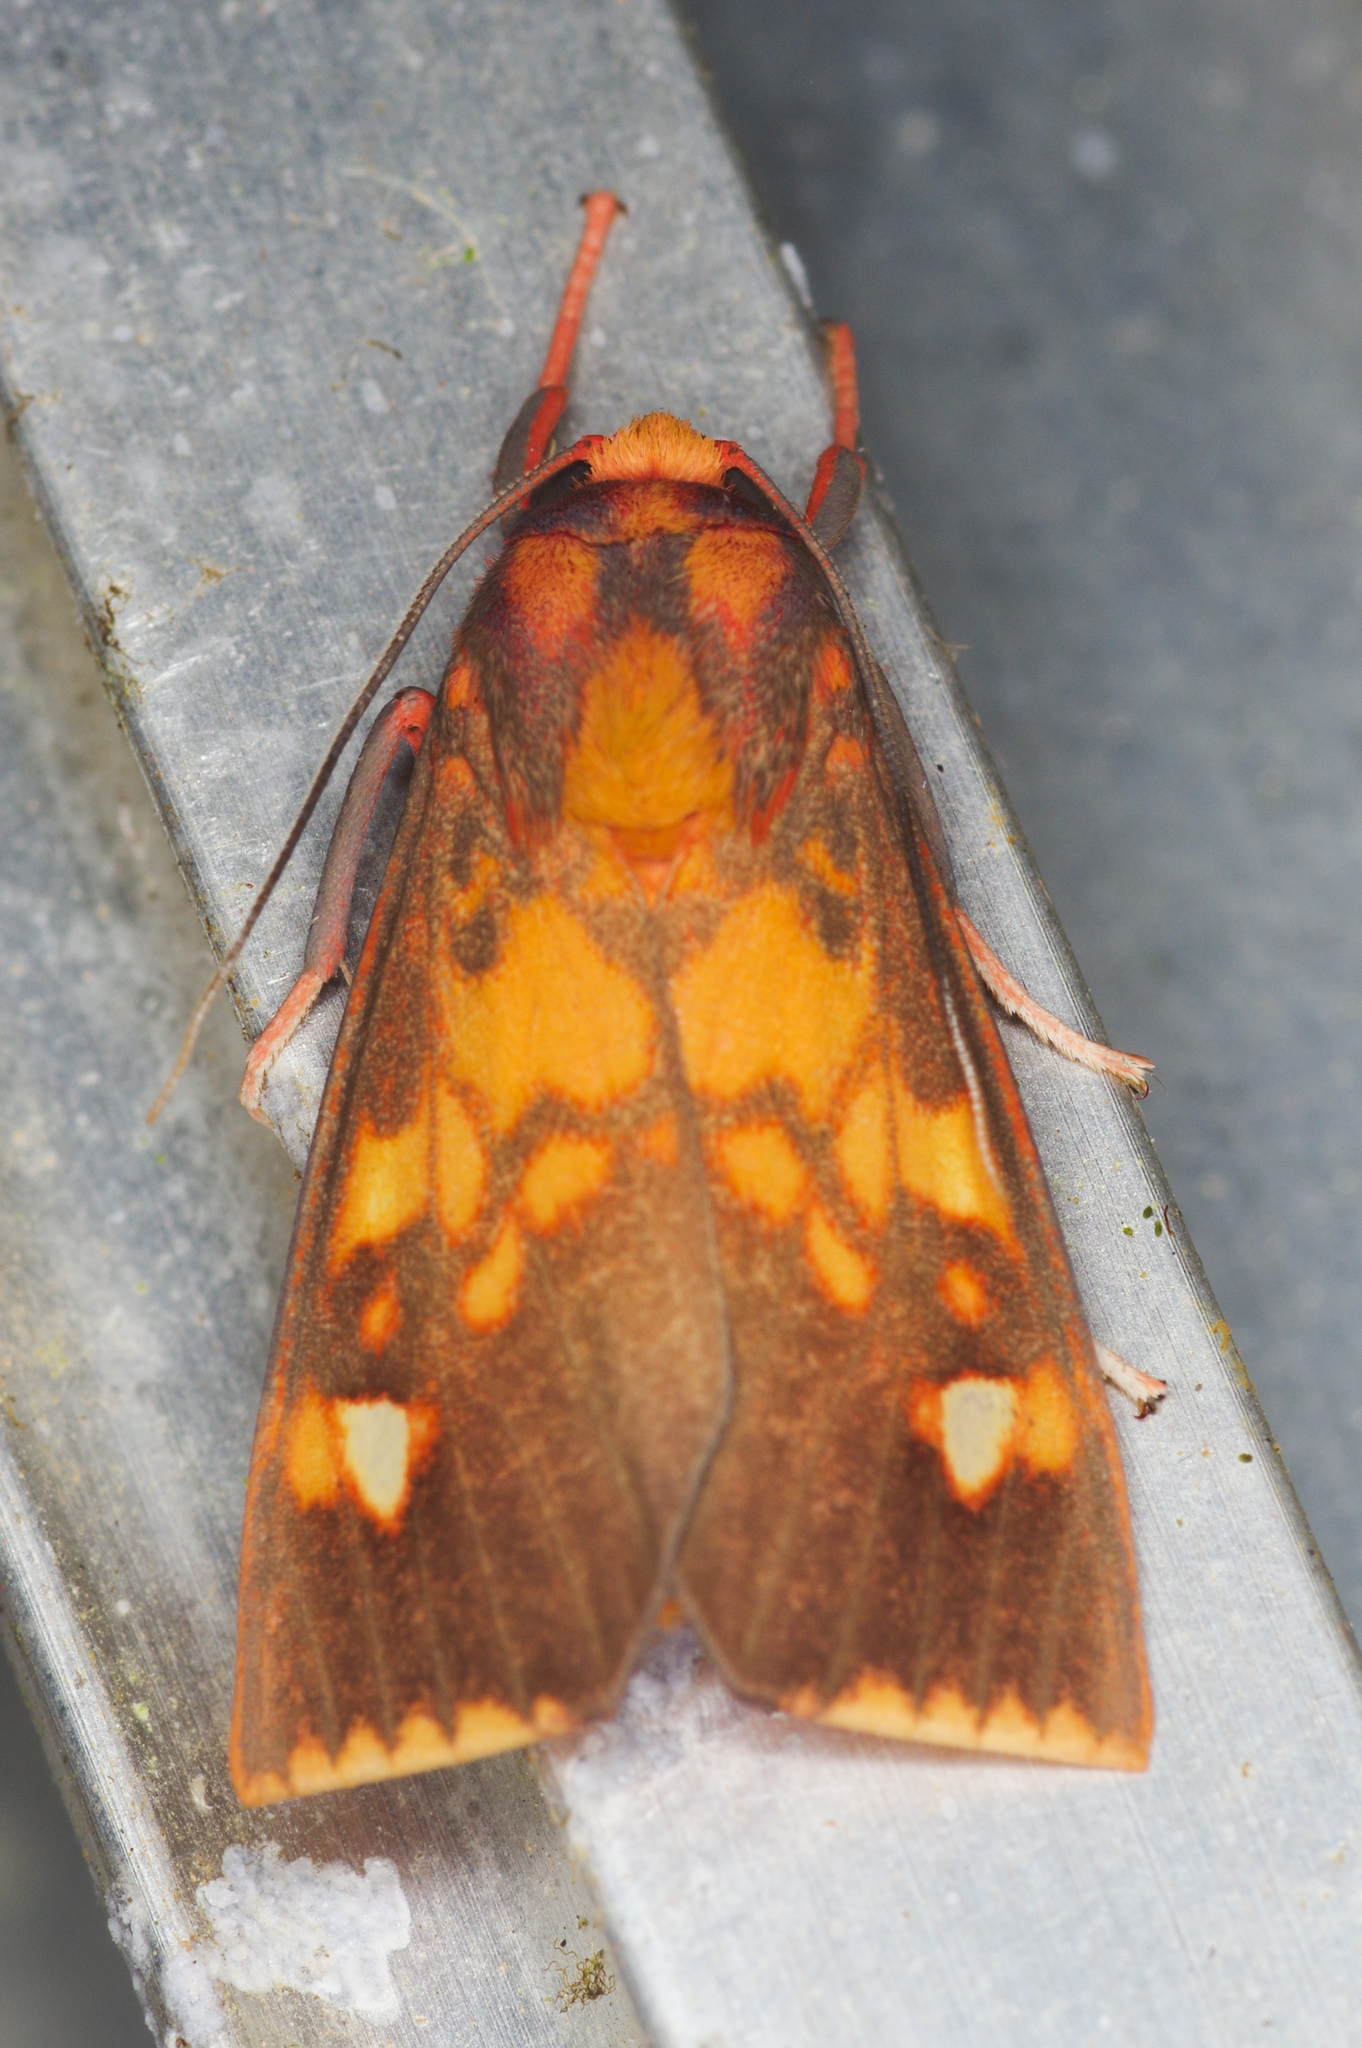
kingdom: Animalia
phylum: Arthropoda
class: Insecta
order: Lepidoptera
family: Erebidae
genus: Melese
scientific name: Melese dorothea
